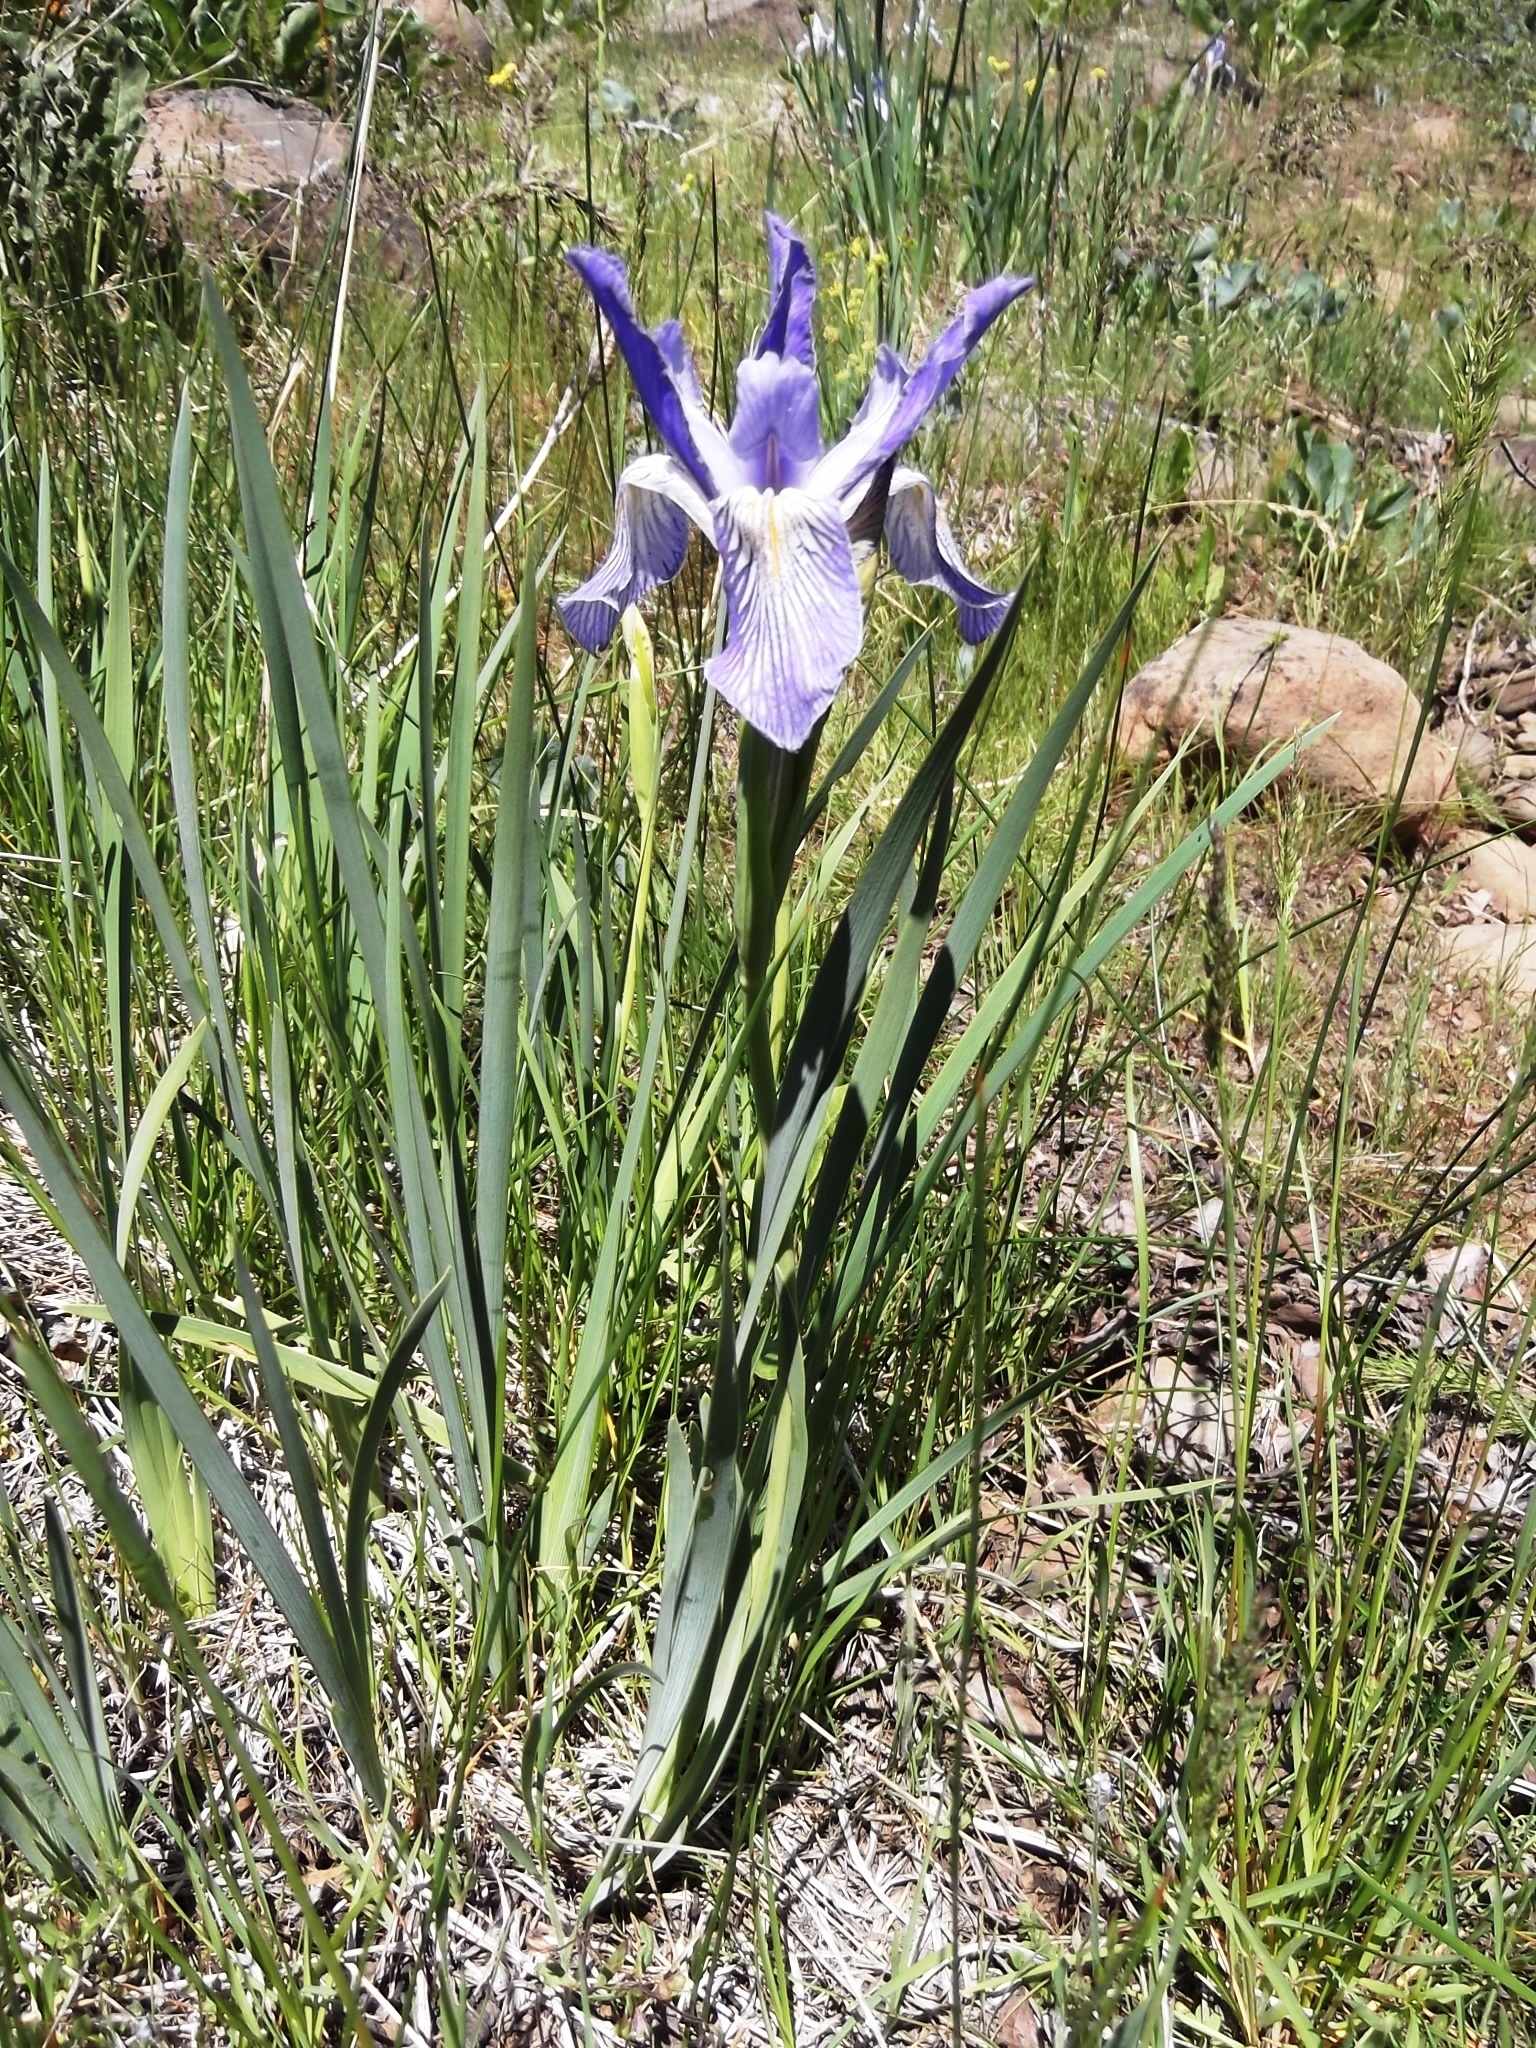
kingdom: Plantae
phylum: Tracheophyta
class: Liliopsida
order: Asparagales
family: Iridaceae
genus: Iris
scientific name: Iris missouriensis
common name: Rocky mountain iris
